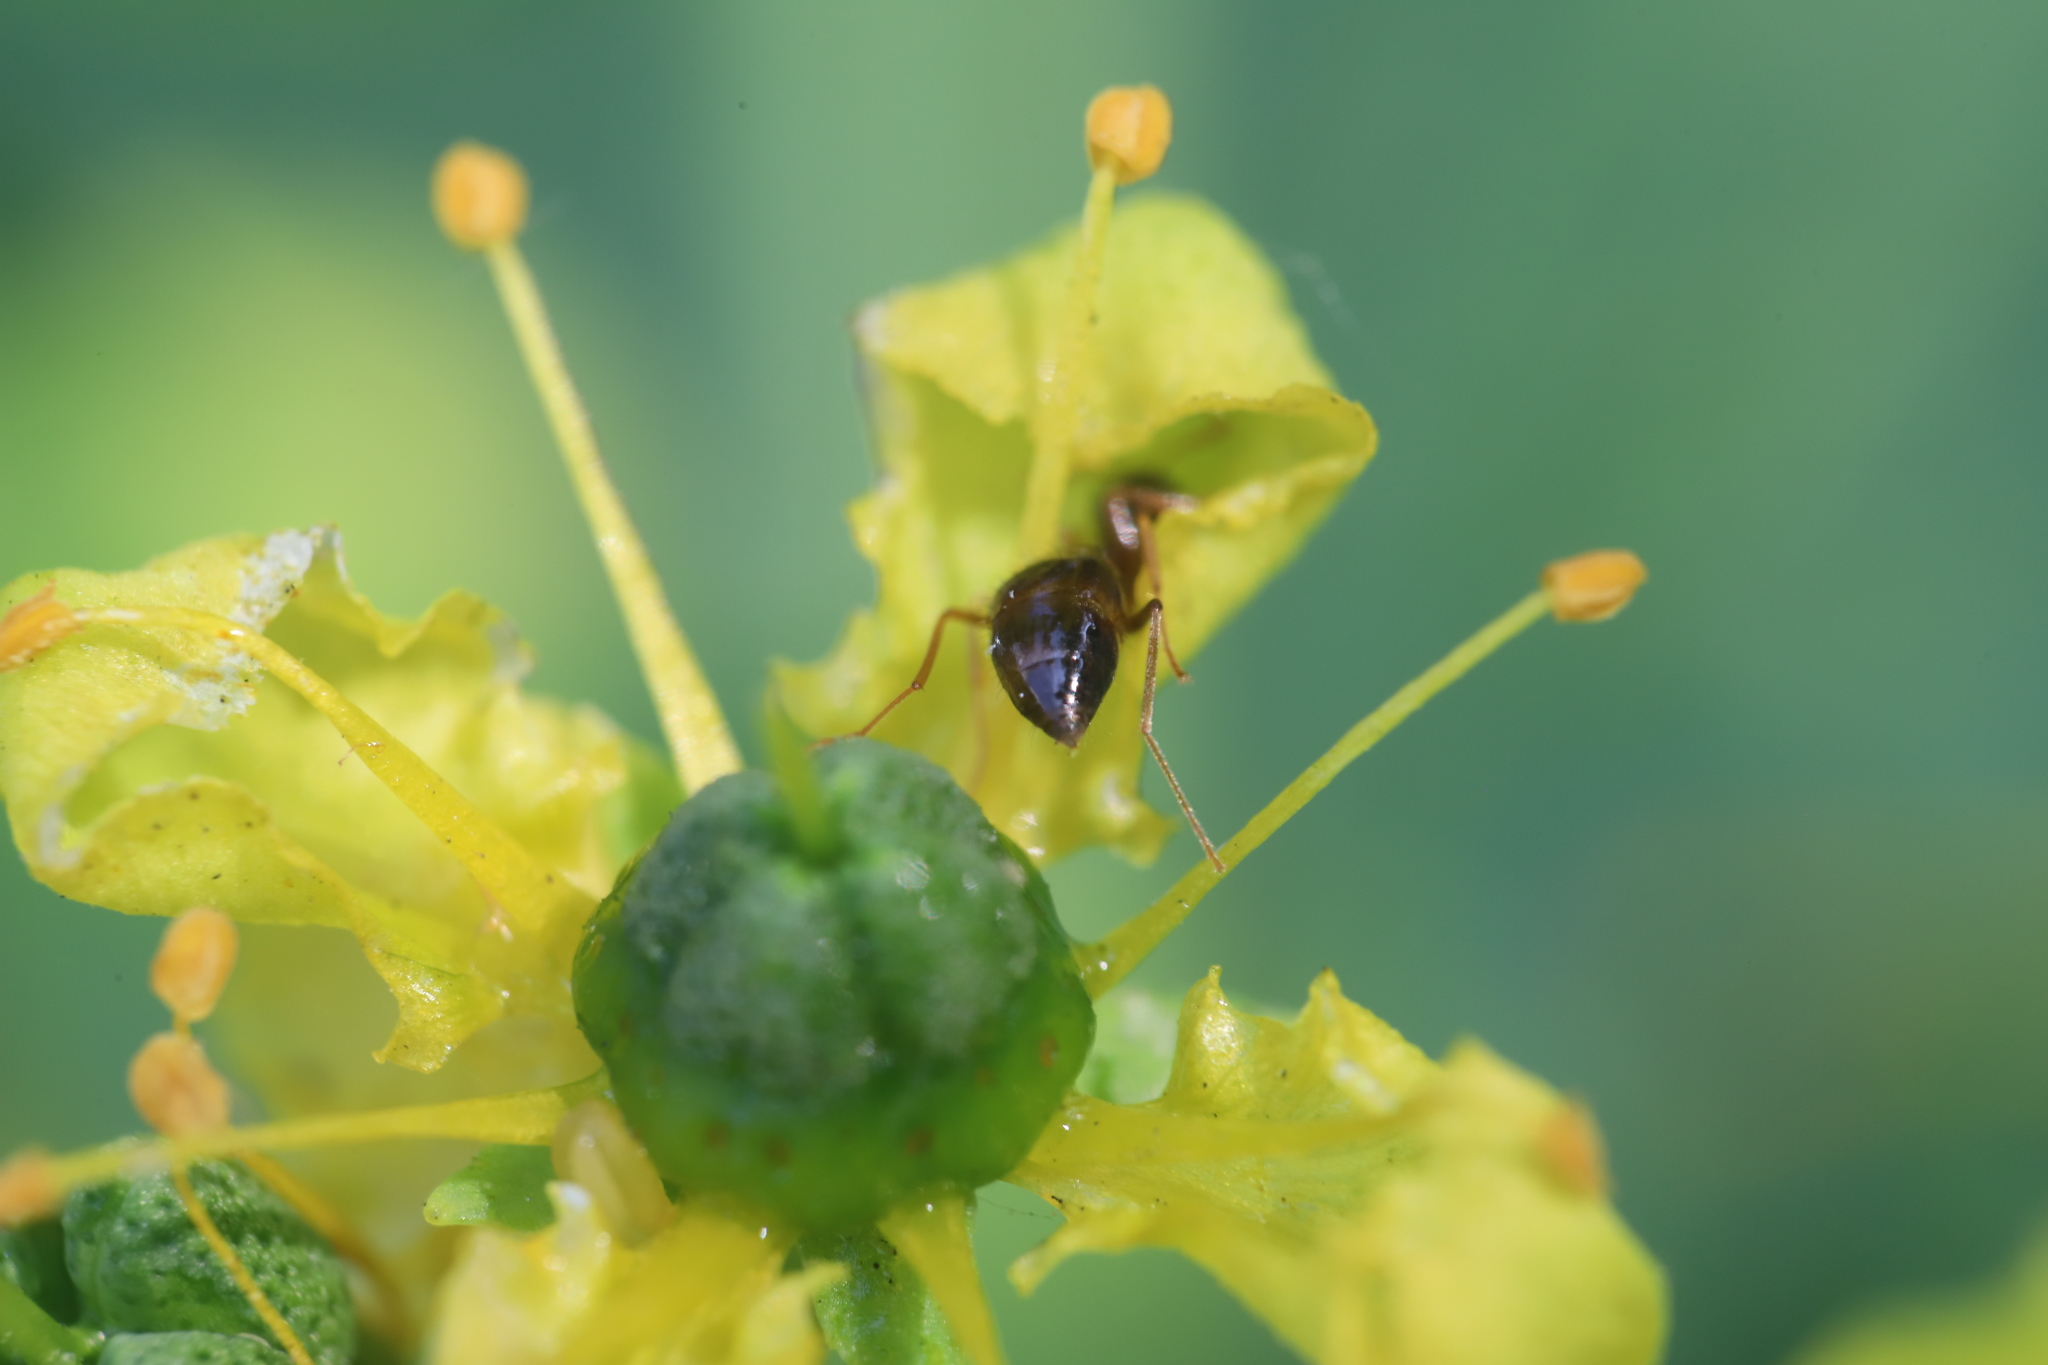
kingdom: Animalia
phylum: Arthropoda
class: Insecta
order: Hymenoptera
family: Formicidae
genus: Prenolepis
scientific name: Prenolepis imparis
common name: Small honey ant
